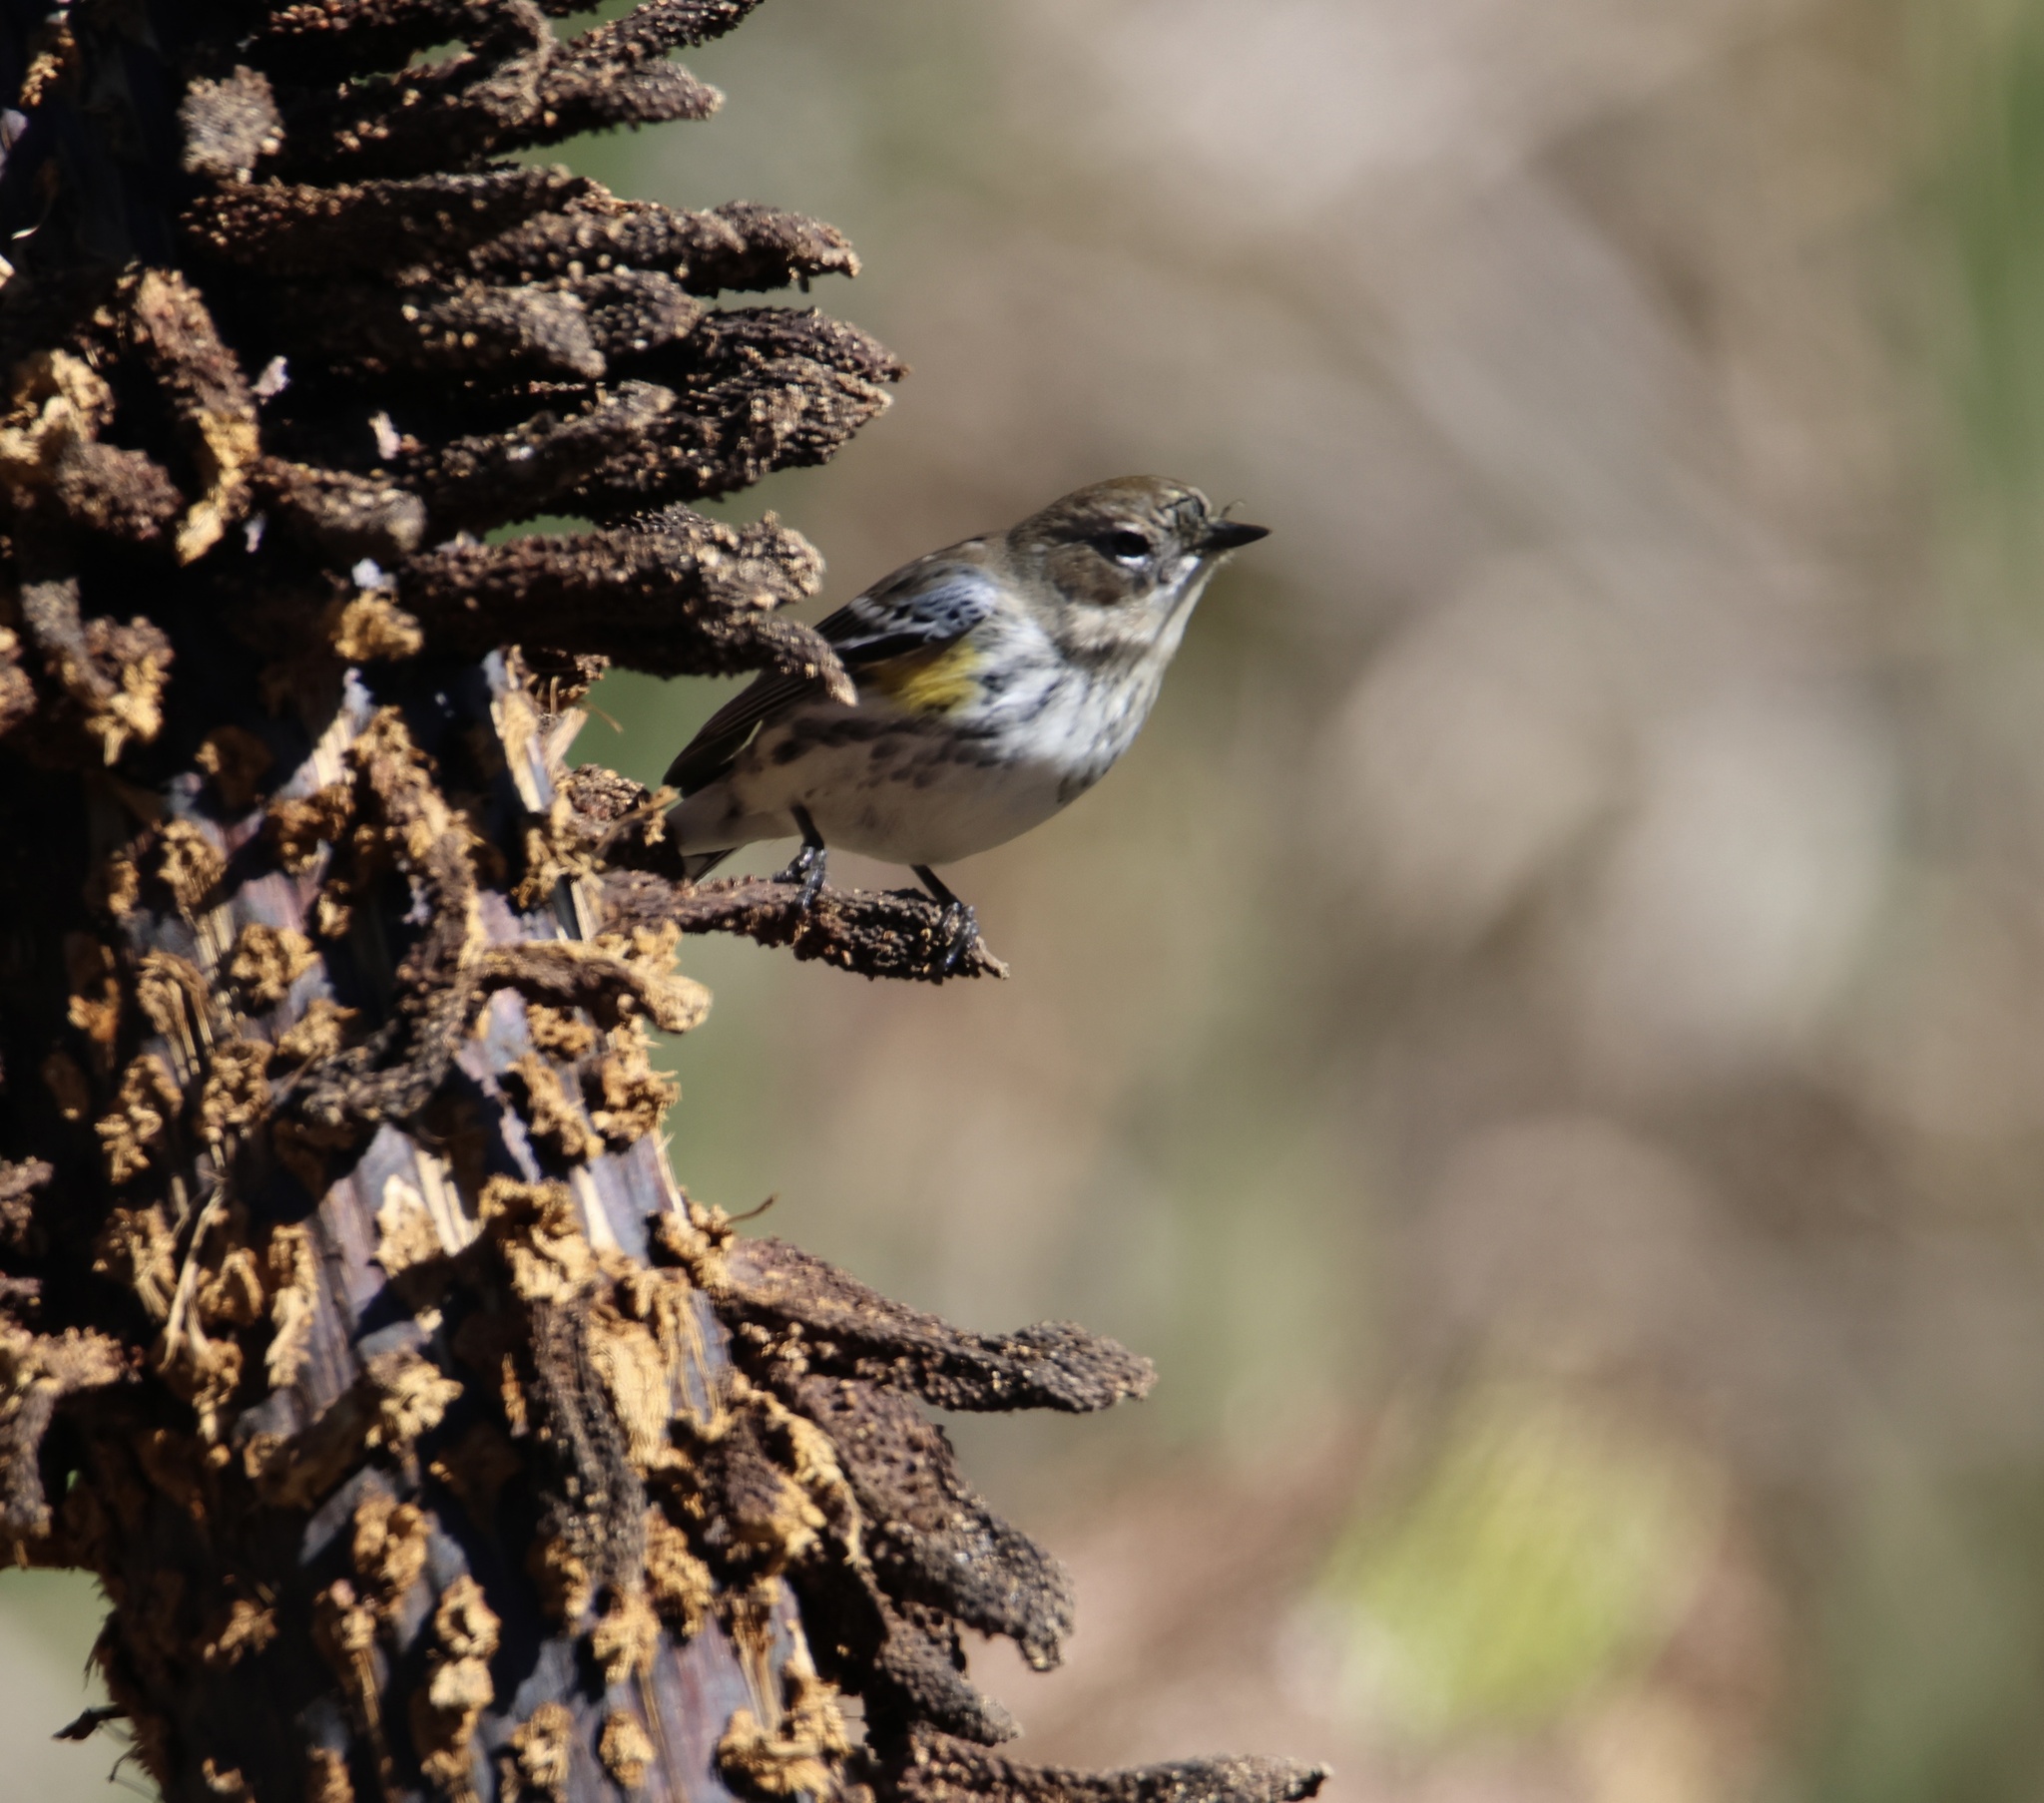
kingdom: Animalia
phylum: Chordata
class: Aves
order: Passeriformes
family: Parulidae
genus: Setophaga
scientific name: Setophaga coronata
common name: Myrtle warbler
